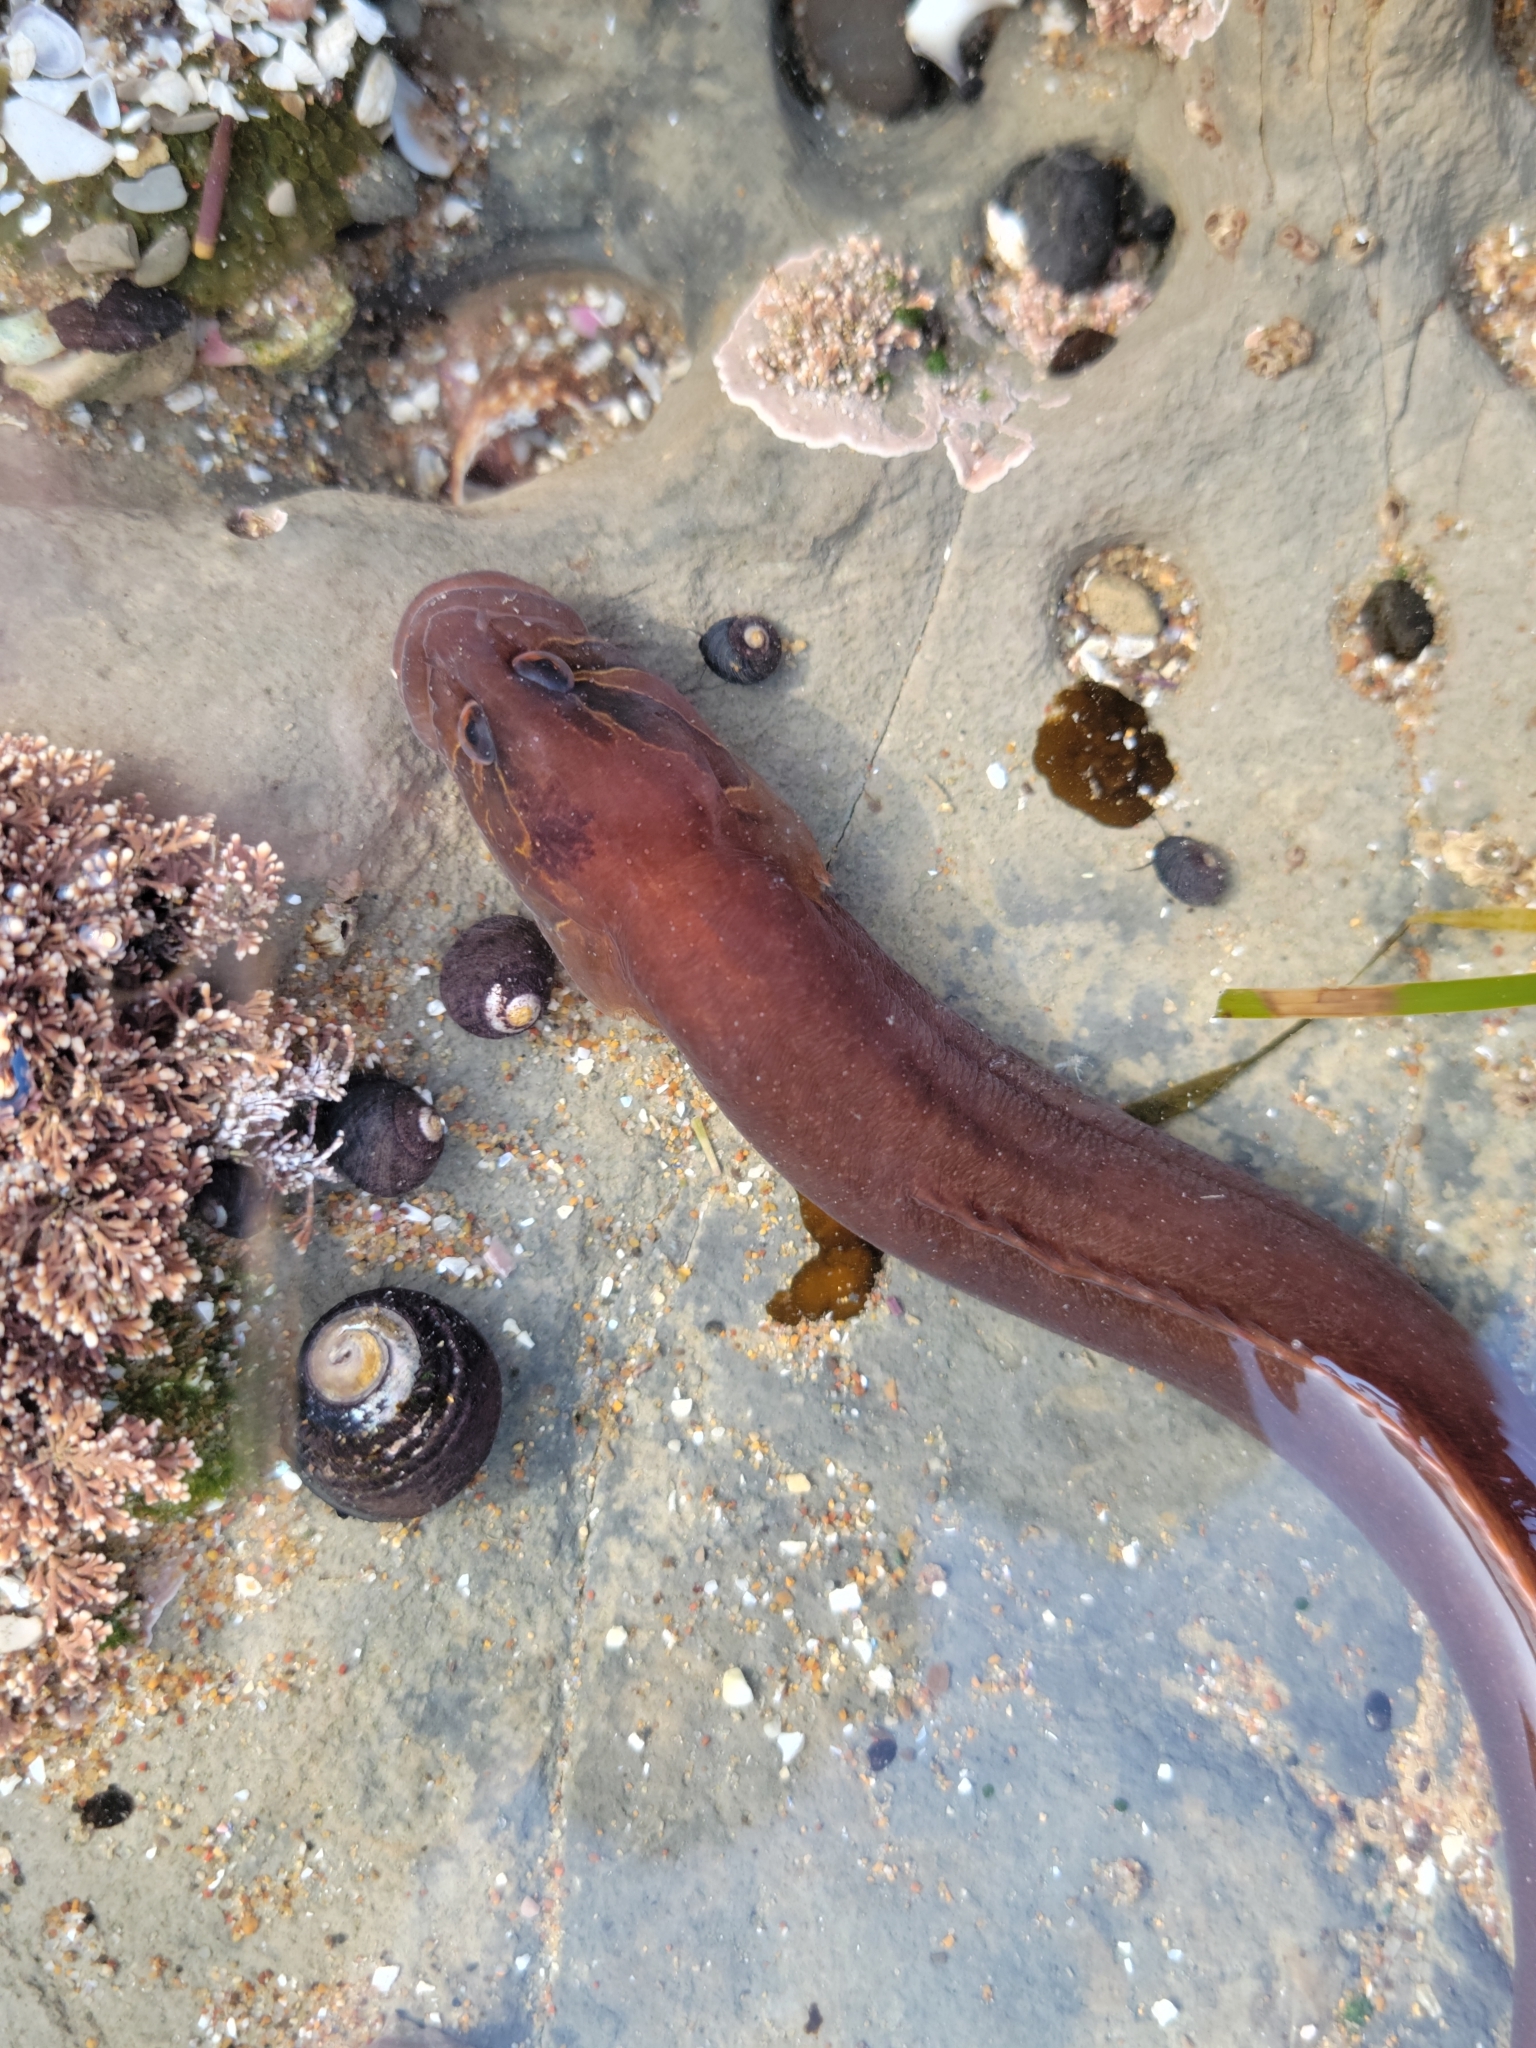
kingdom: Animalia
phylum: Chordata
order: Perciformes
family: Stichaeidae
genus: Xiphister
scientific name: Xiphister atropurpureus
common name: Black prickleback
